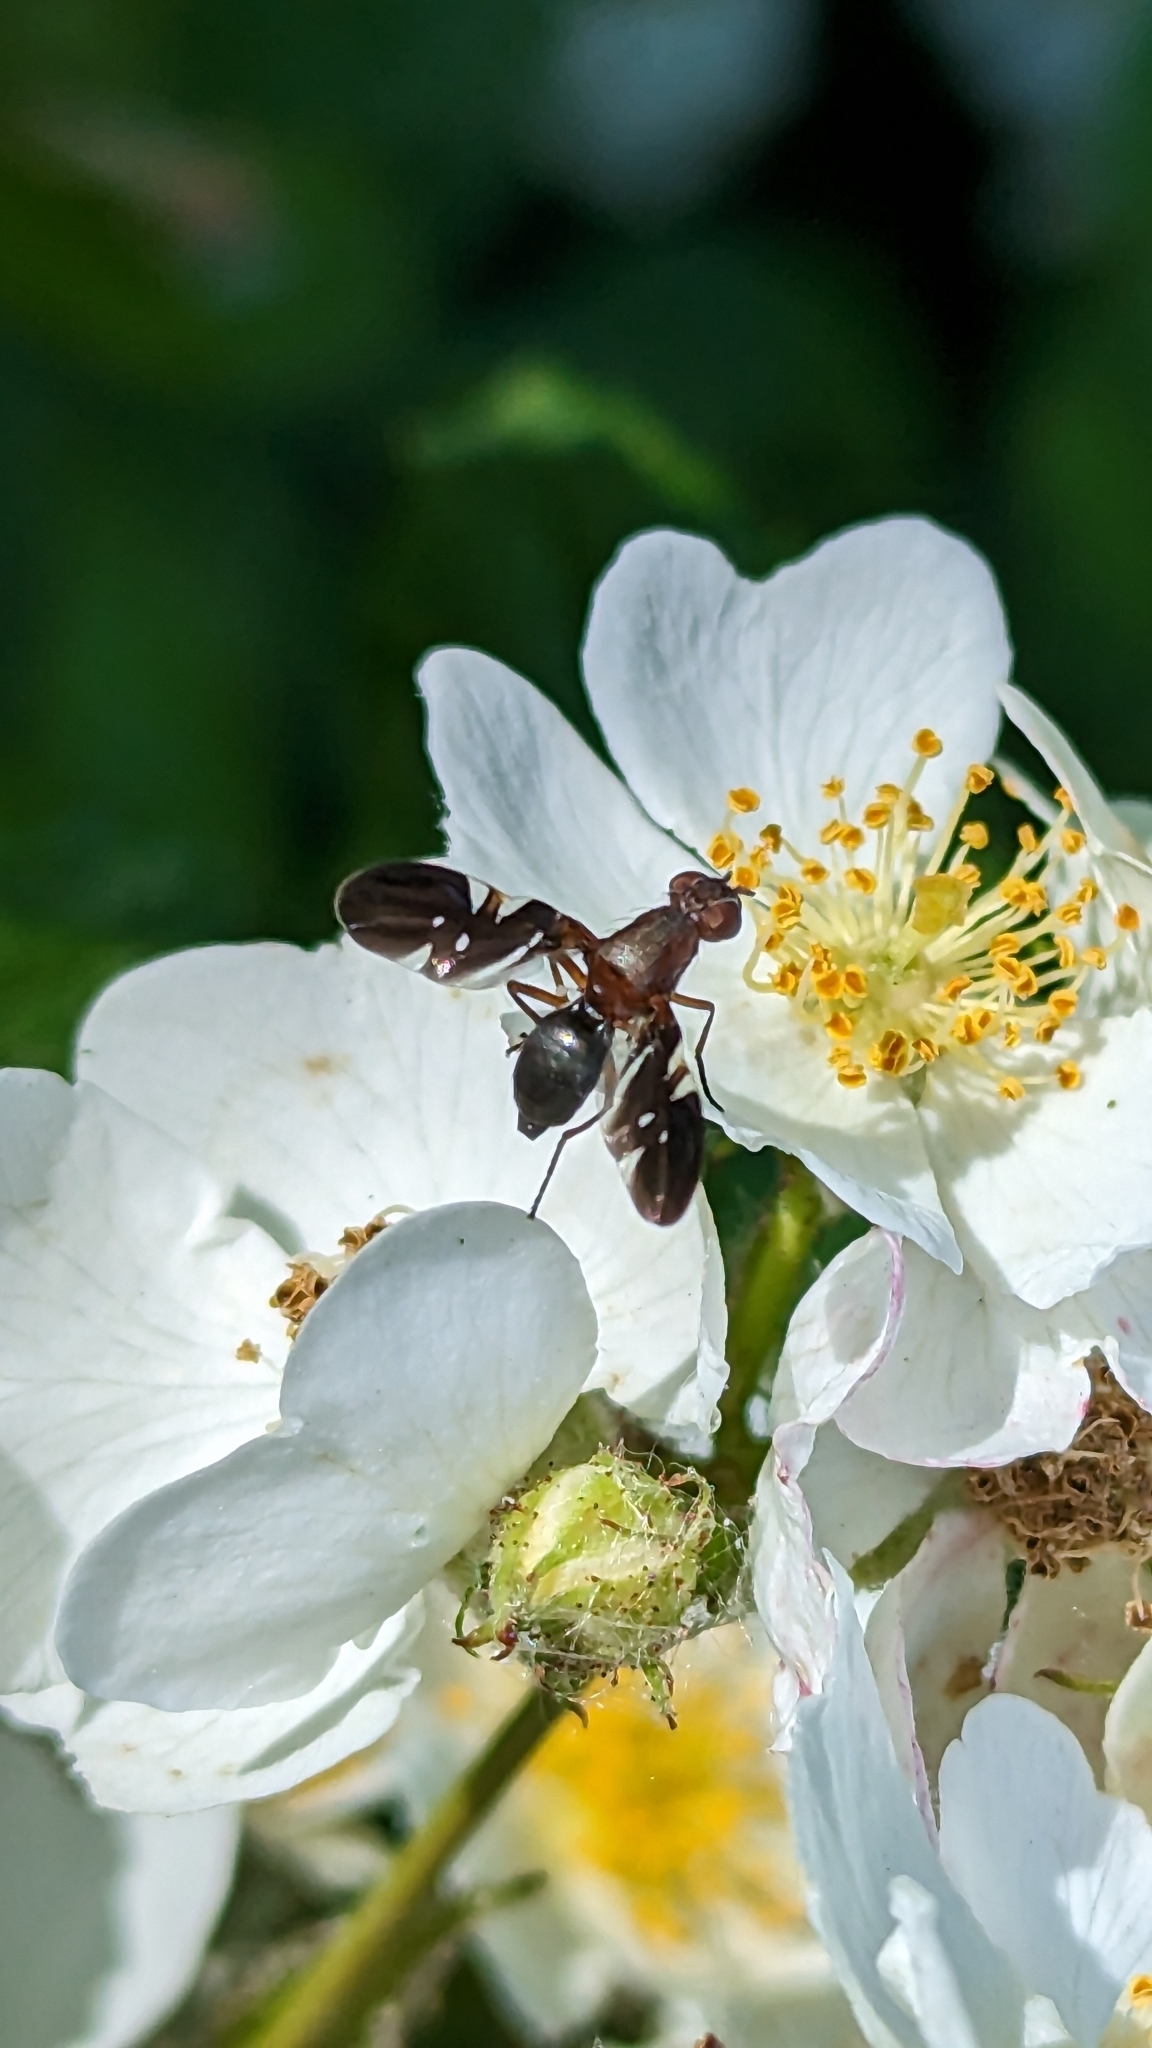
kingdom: Animalia
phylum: Arthropoda
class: Insecta
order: Diptera
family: Ulidiidae
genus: Delphinia
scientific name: Delphinia picta
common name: Common picture-winged fly
